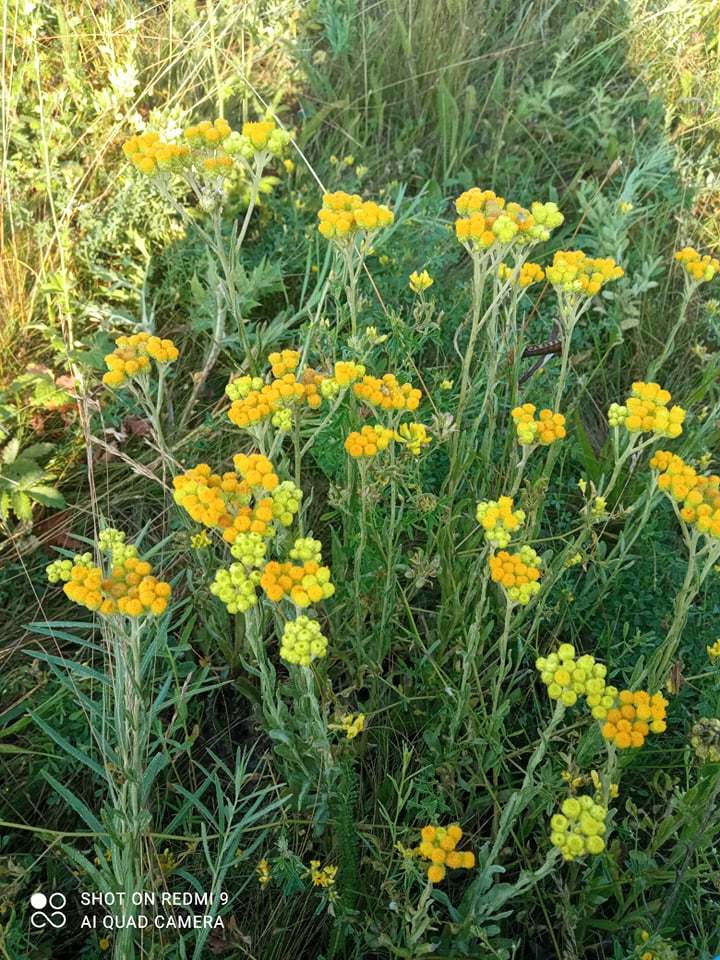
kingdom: Plantae
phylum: Tracheophyta
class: Magnoliopsida
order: Asterales
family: Asteraceae
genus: Helichrysum
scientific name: Helichrysum arenarium
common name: Strawflower
